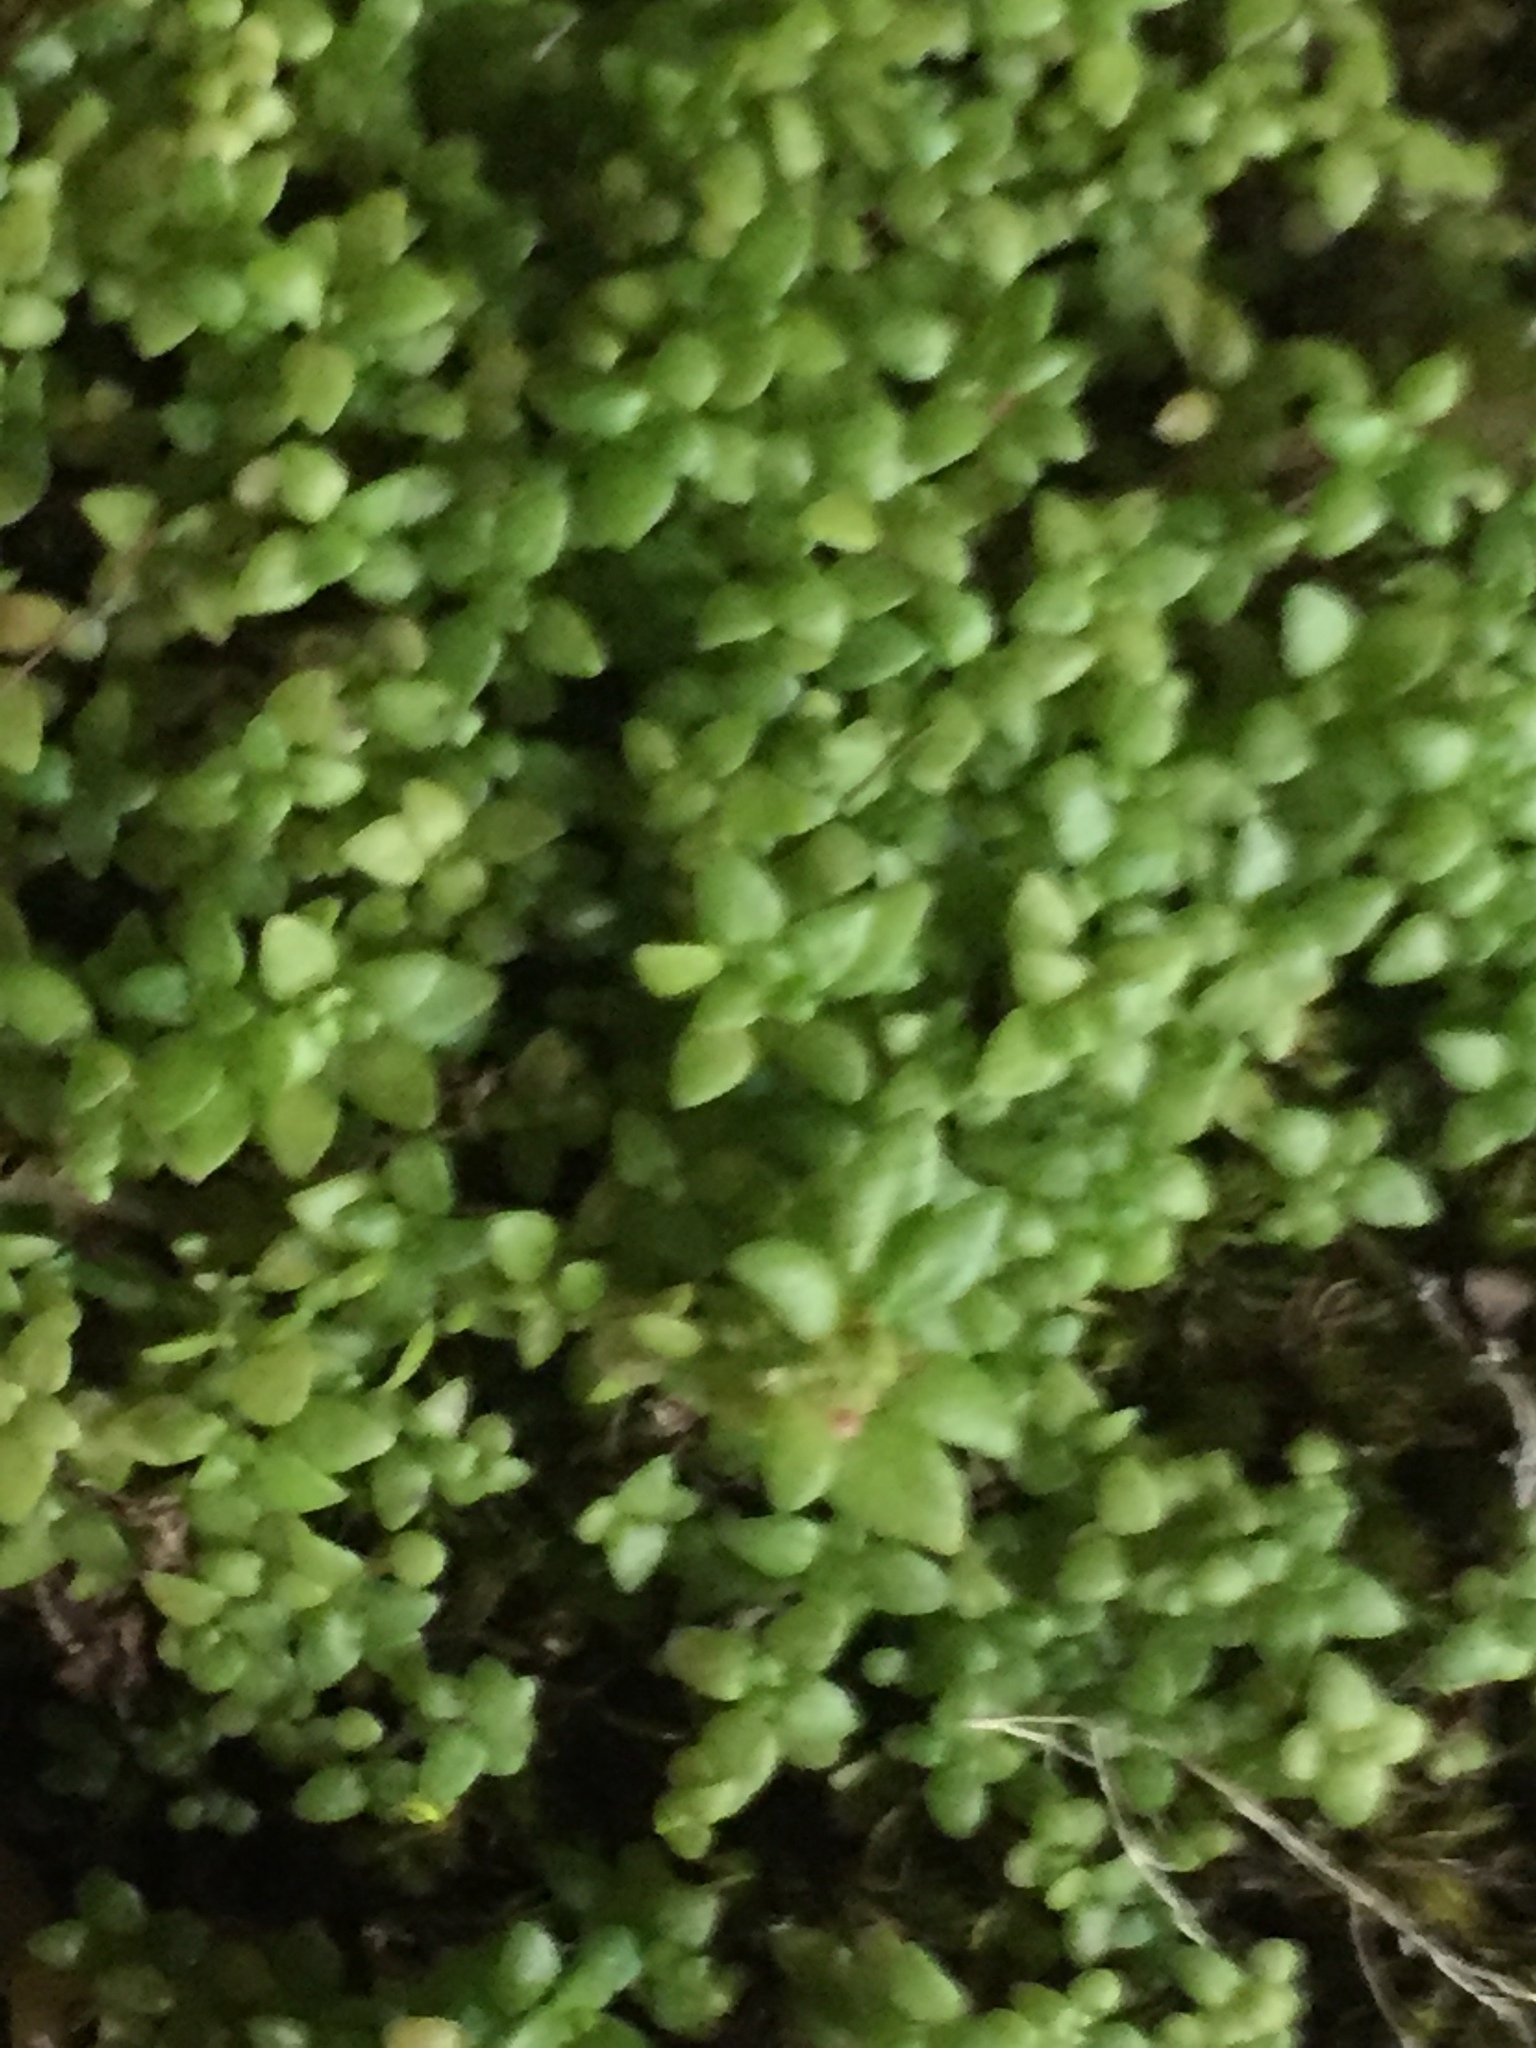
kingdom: Plantae
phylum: Tracheophyta
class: Magnoliopsida
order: Rosales
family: Urticaceae
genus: Pilea
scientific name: Pilea microphylla
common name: Artillery-plant
